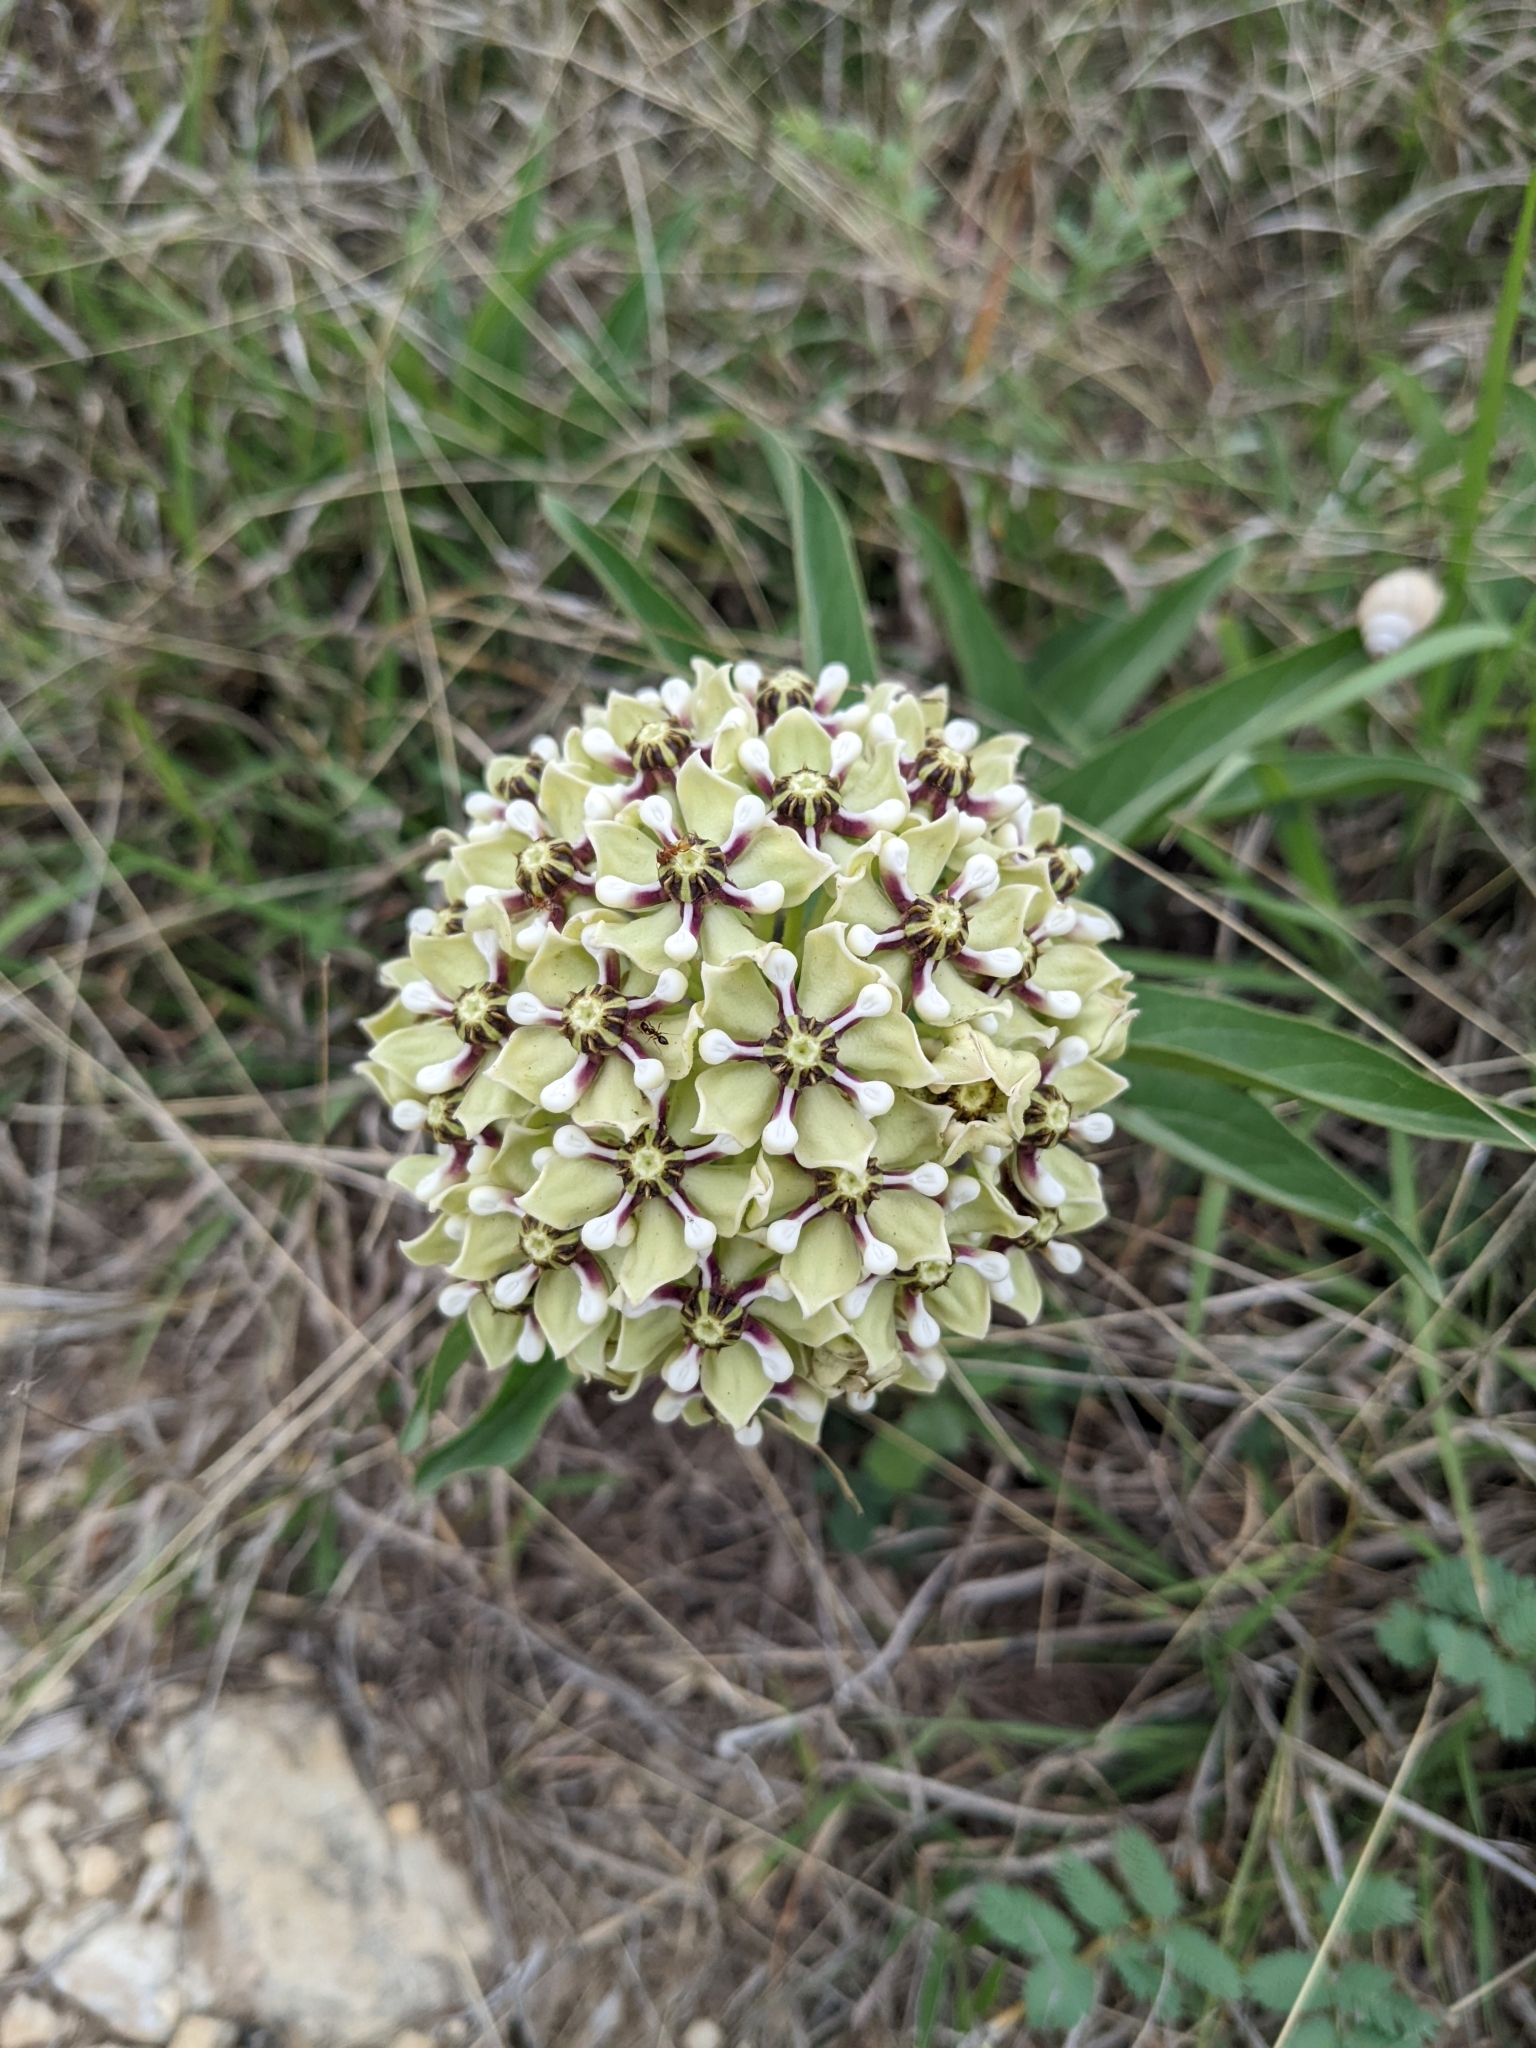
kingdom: Plantae
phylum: Tracheophyta
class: Magnoliopsida
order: Gentianales
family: Apocynaceae
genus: Asclepias
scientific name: Asclepias asperula
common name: Antelope horns
